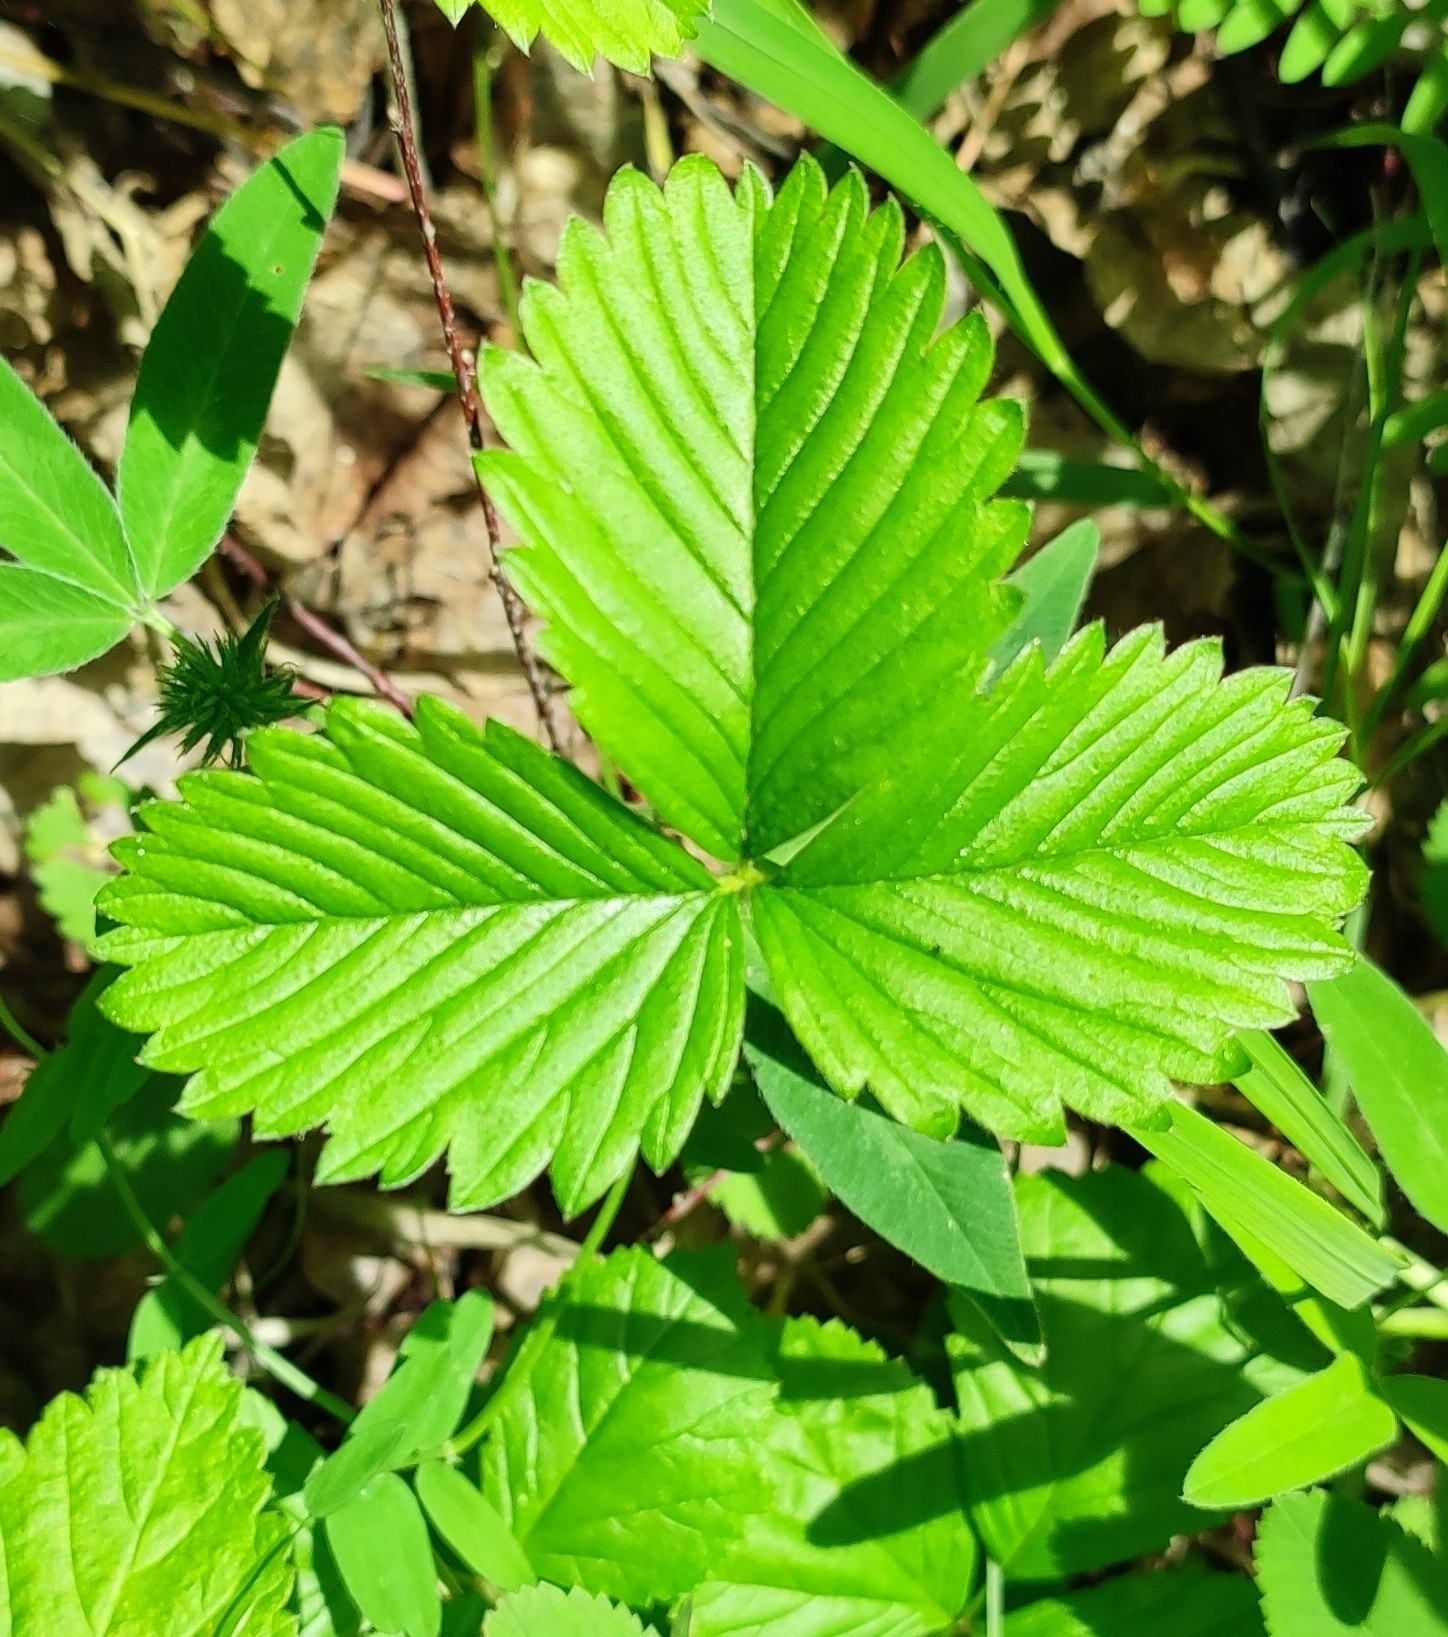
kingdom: Plantae
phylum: Tracheophyta
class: Magnoliopsida
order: Rosales
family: Rosaceae
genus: Fragaria
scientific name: Fragaria viridis
